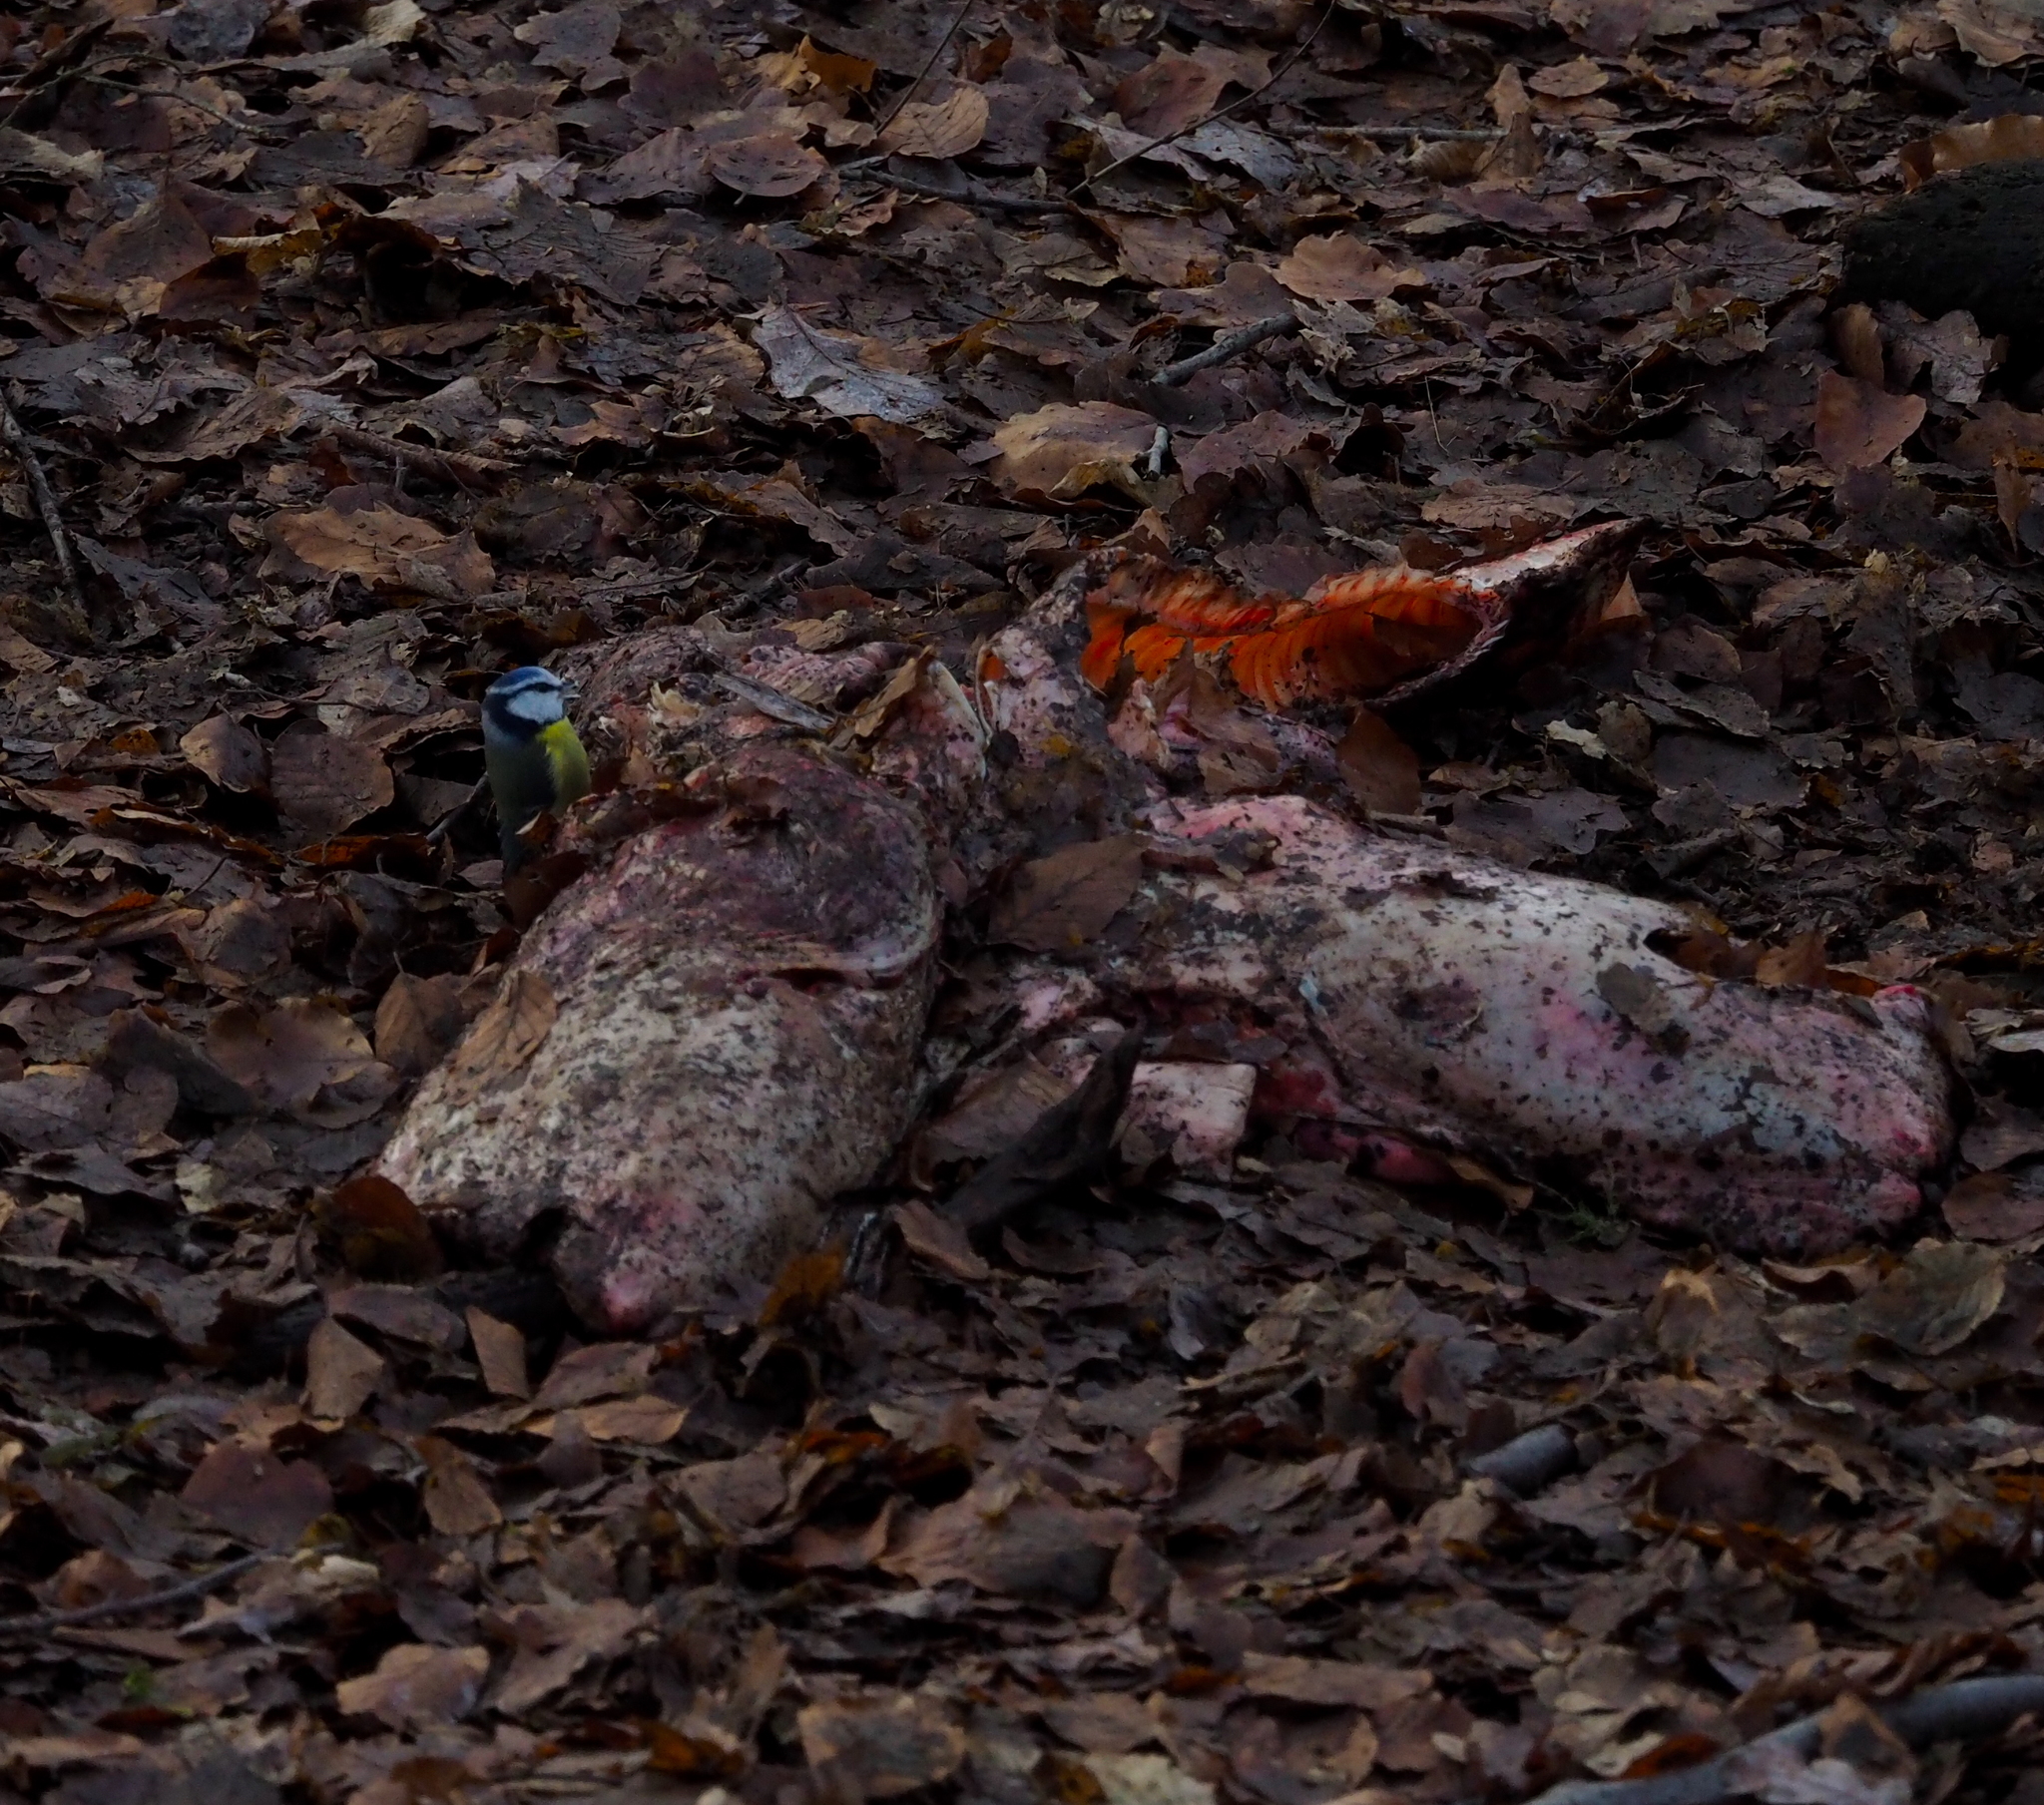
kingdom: Animalia
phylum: Chordata
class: Aves
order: Passeriformes
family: Paridae
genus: Cyanistes
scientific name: Cyanistes caeruleus
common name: Eurasian blue tit
